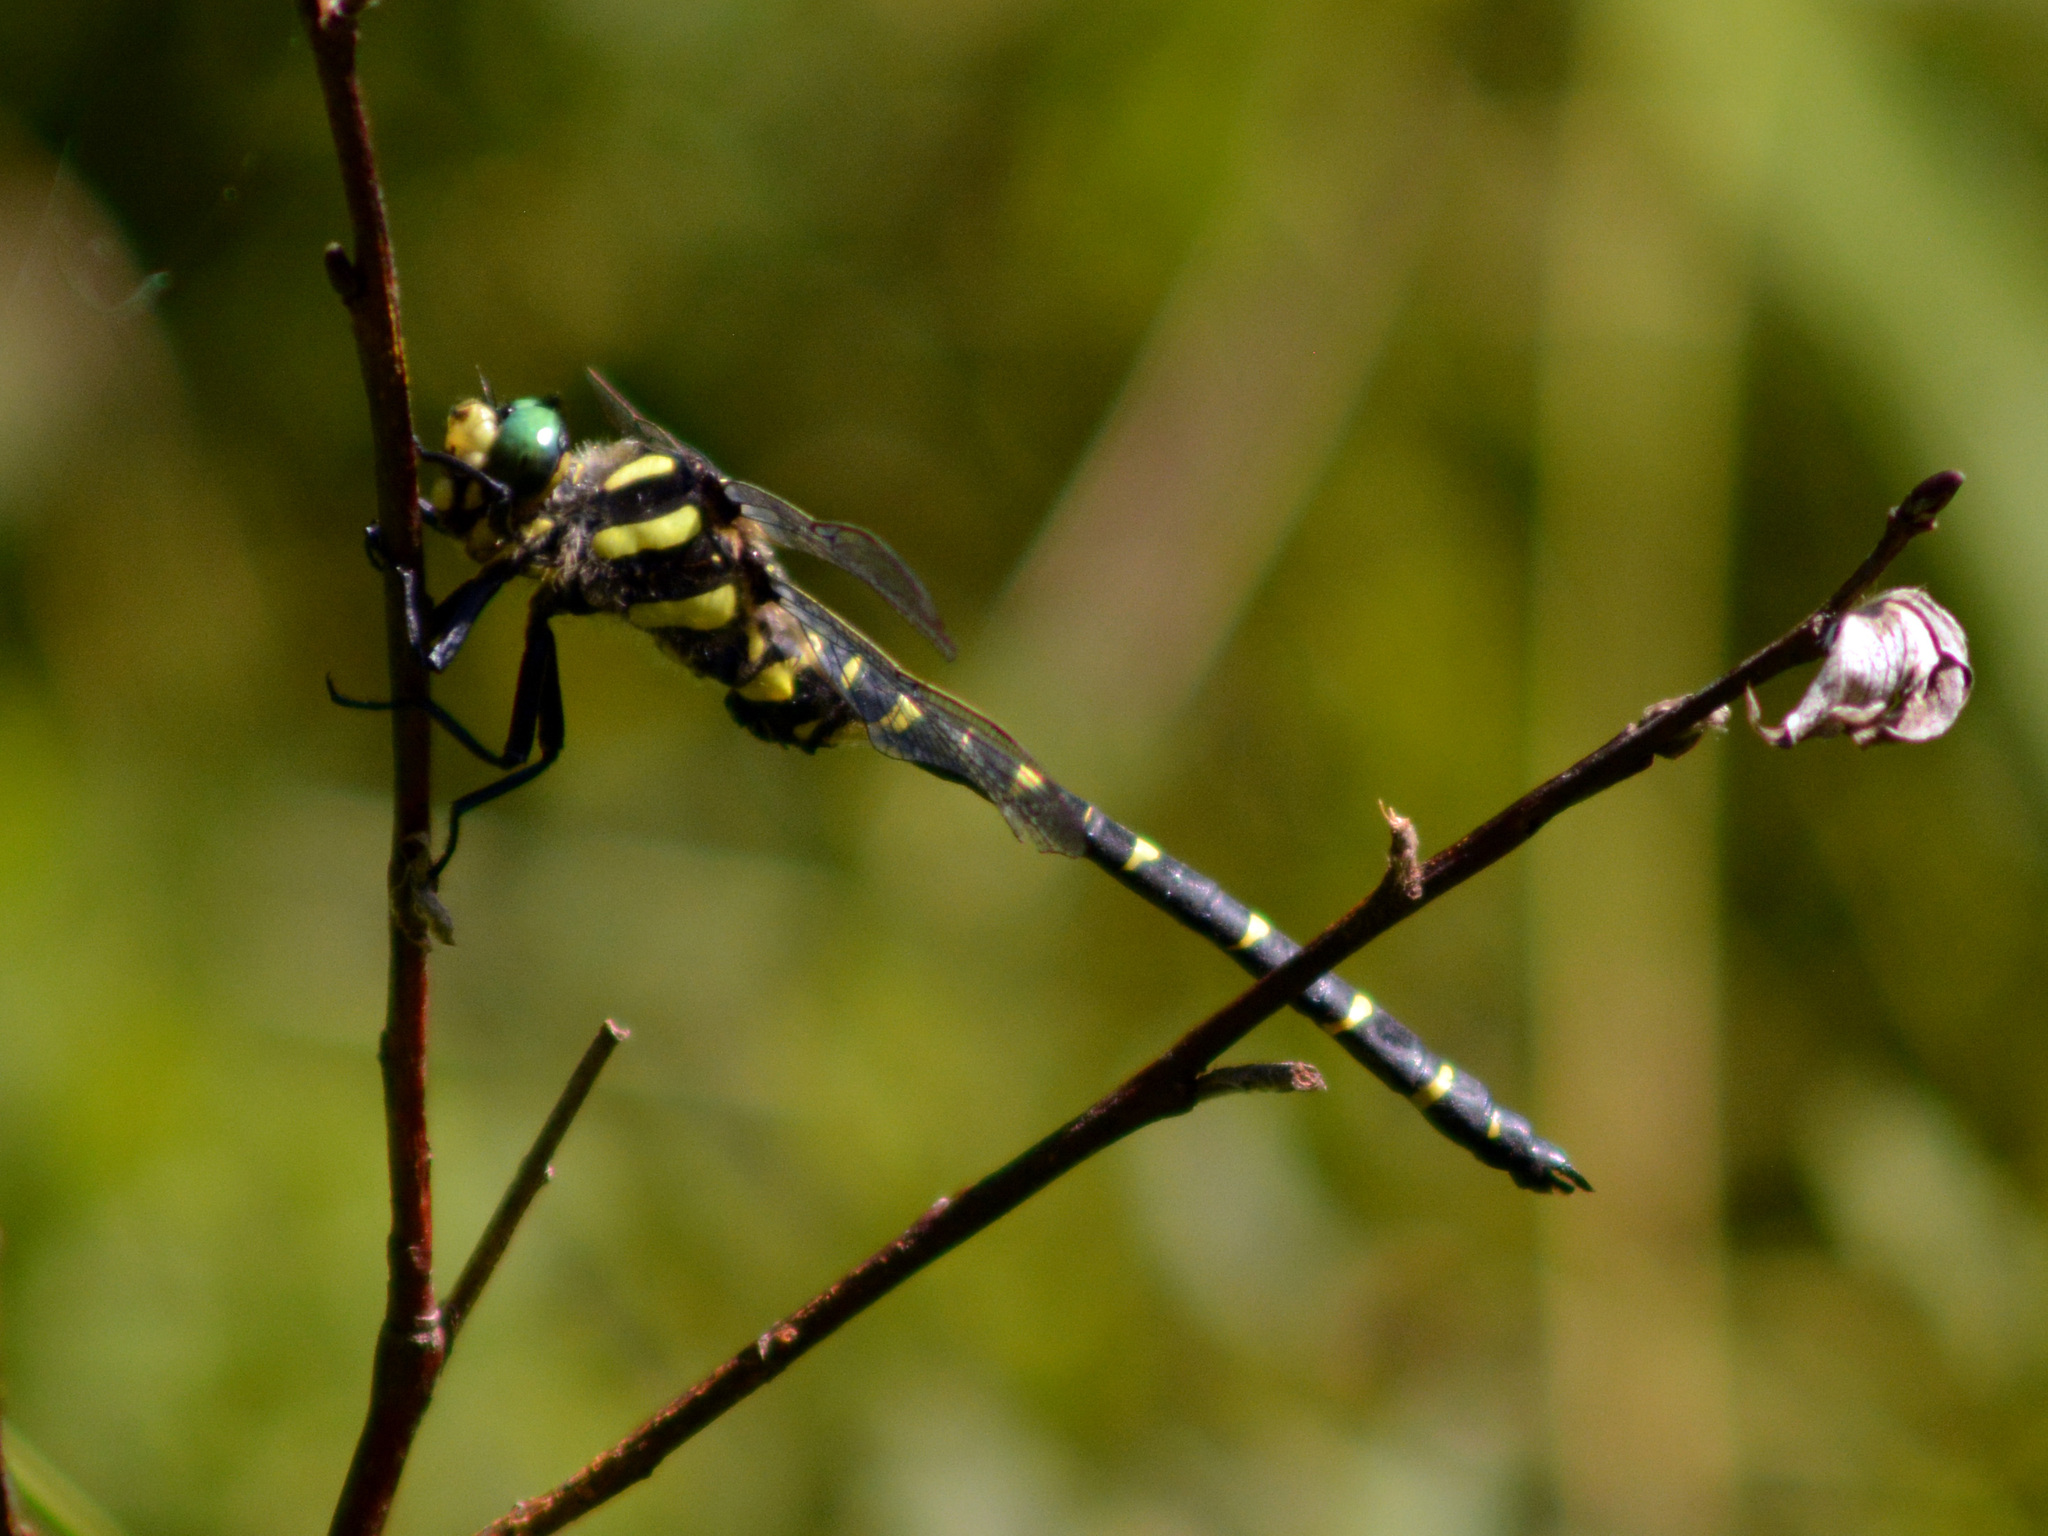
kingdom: Animalia
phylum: Arthropoda
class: Insecta
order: Odonata
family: Cordulegastridae
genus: Cordulegaster
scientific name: Cordulegaster bidentata
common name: Sombre goldenring
